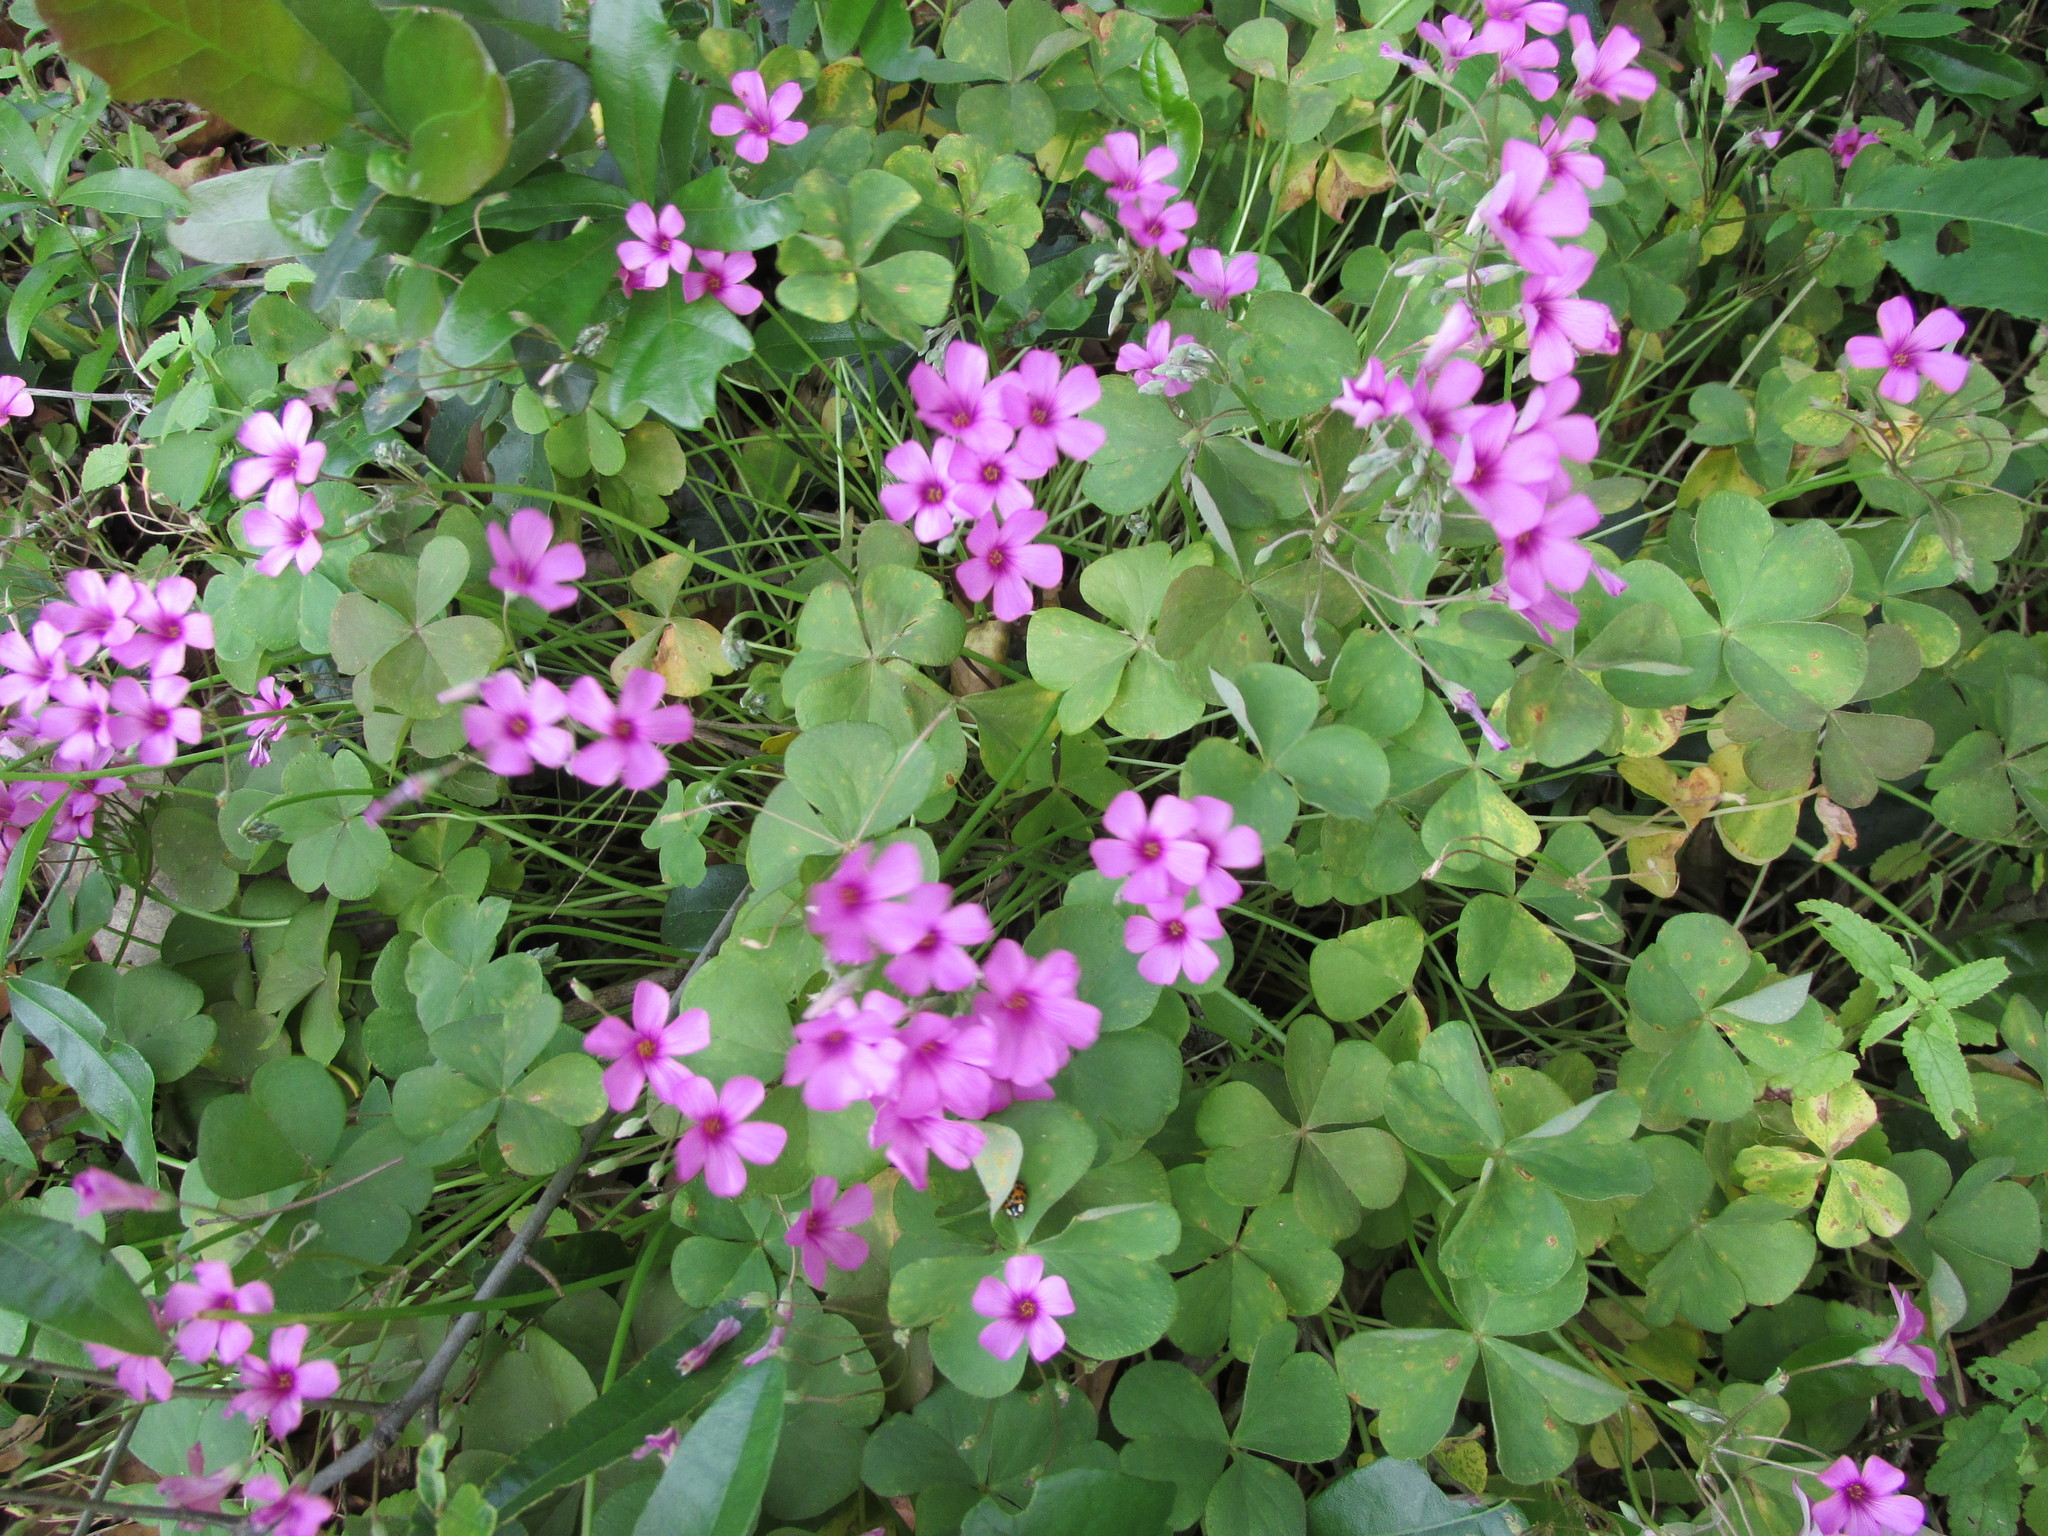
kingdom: Plantae
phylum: Tracheophyta
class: Magnoliopsida
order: Oxalidales
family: Oxalidaceae
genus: Oxalis
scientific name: Oxalis articulata
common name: Pink-sorrel
